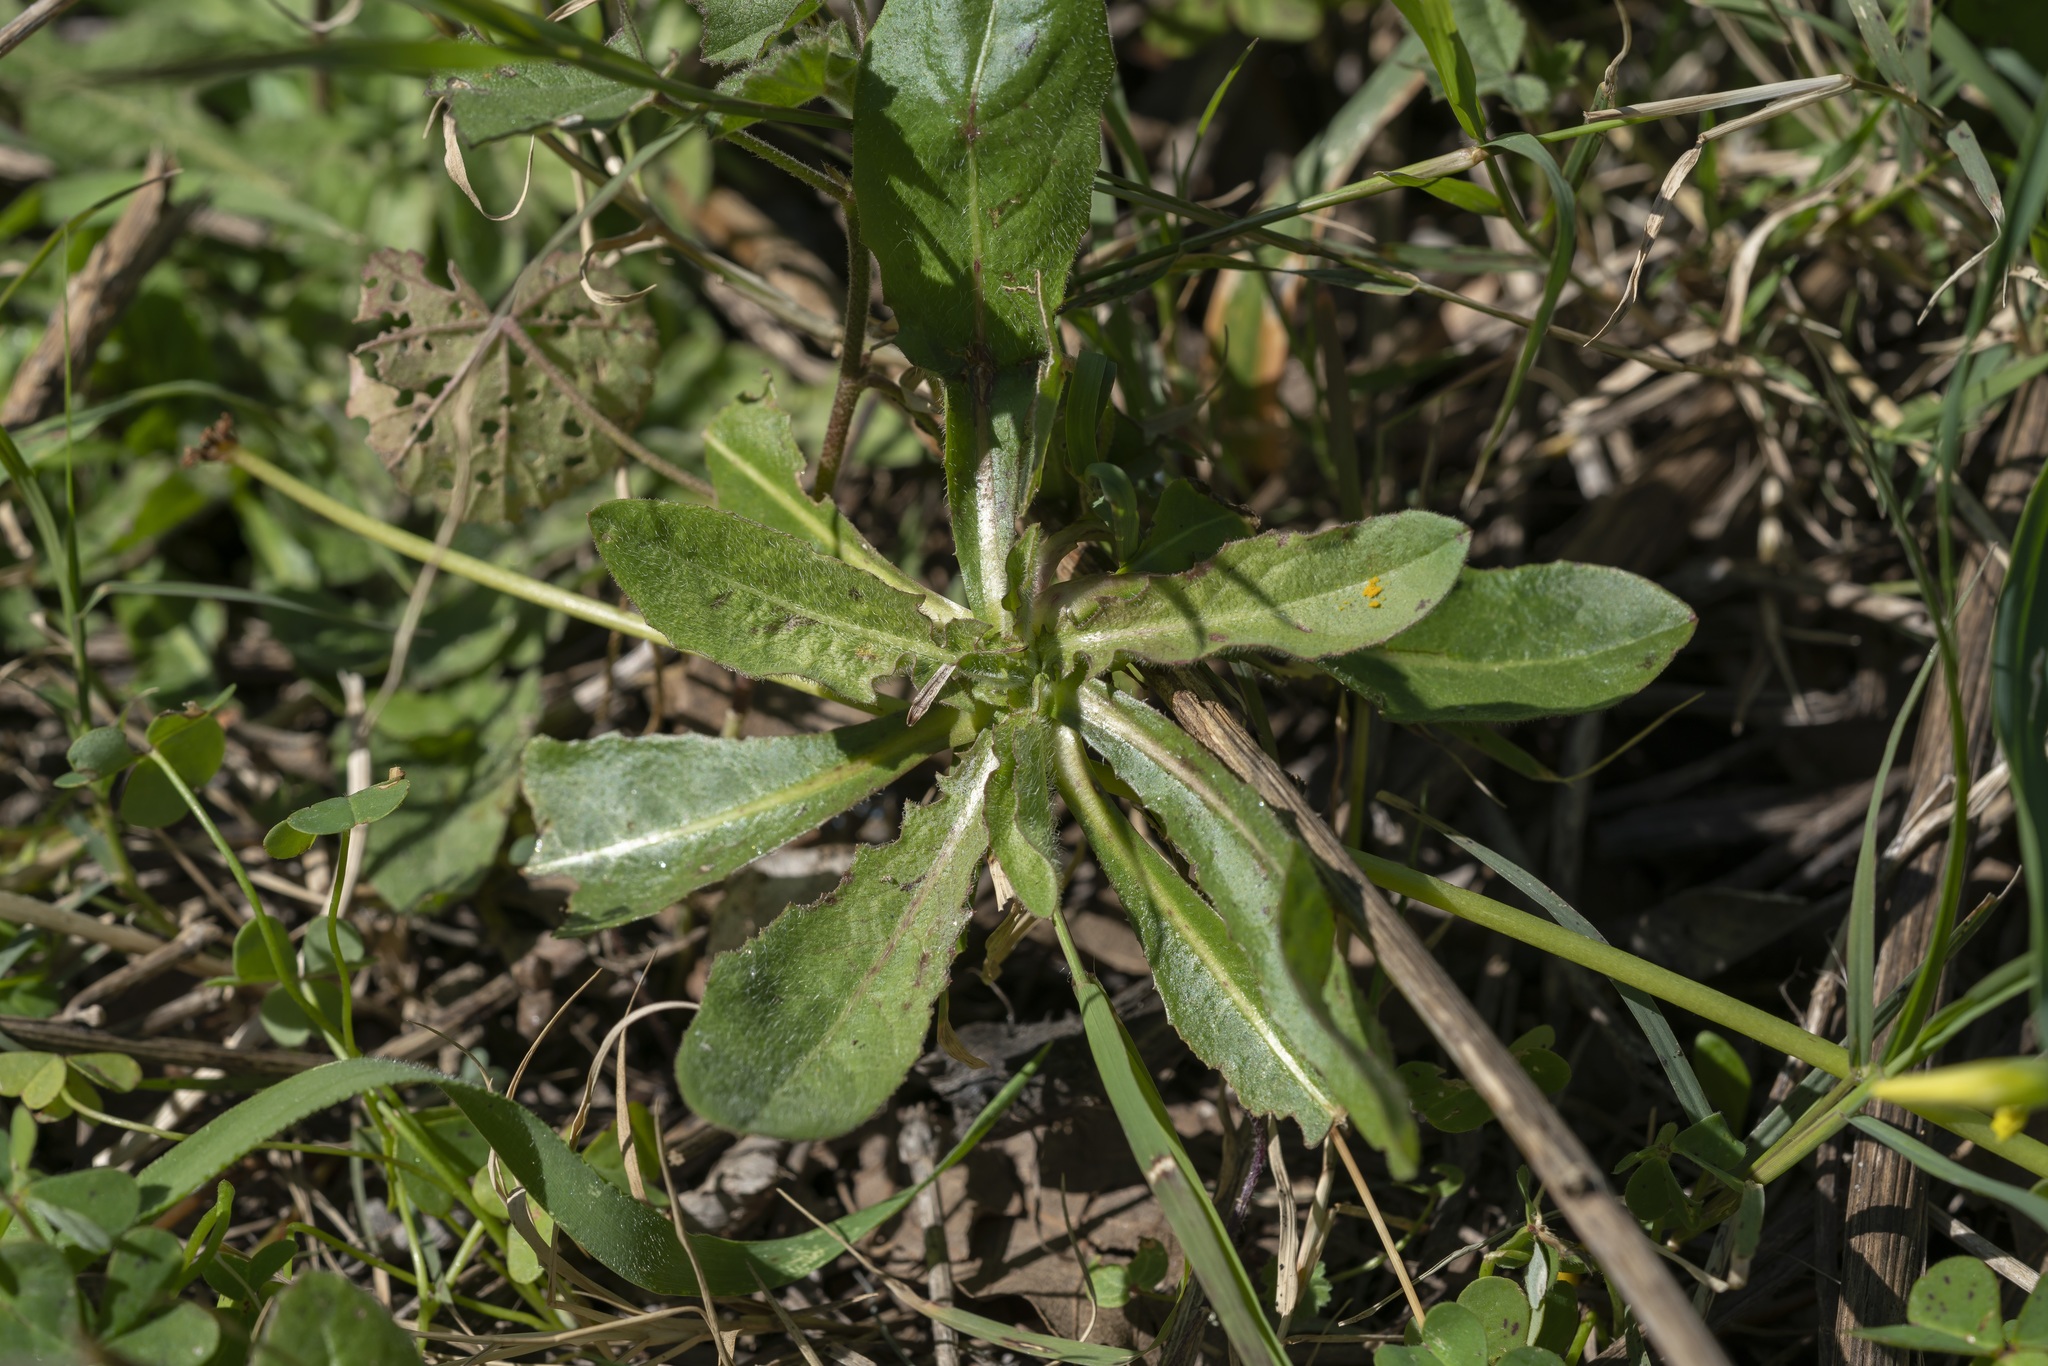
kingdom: Plantae
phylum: Tracheophyta
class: Magnoliopsida
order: Asterales
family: Asteraceae
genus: Cichorium
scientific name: Cichorium intybus
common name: Chicory
